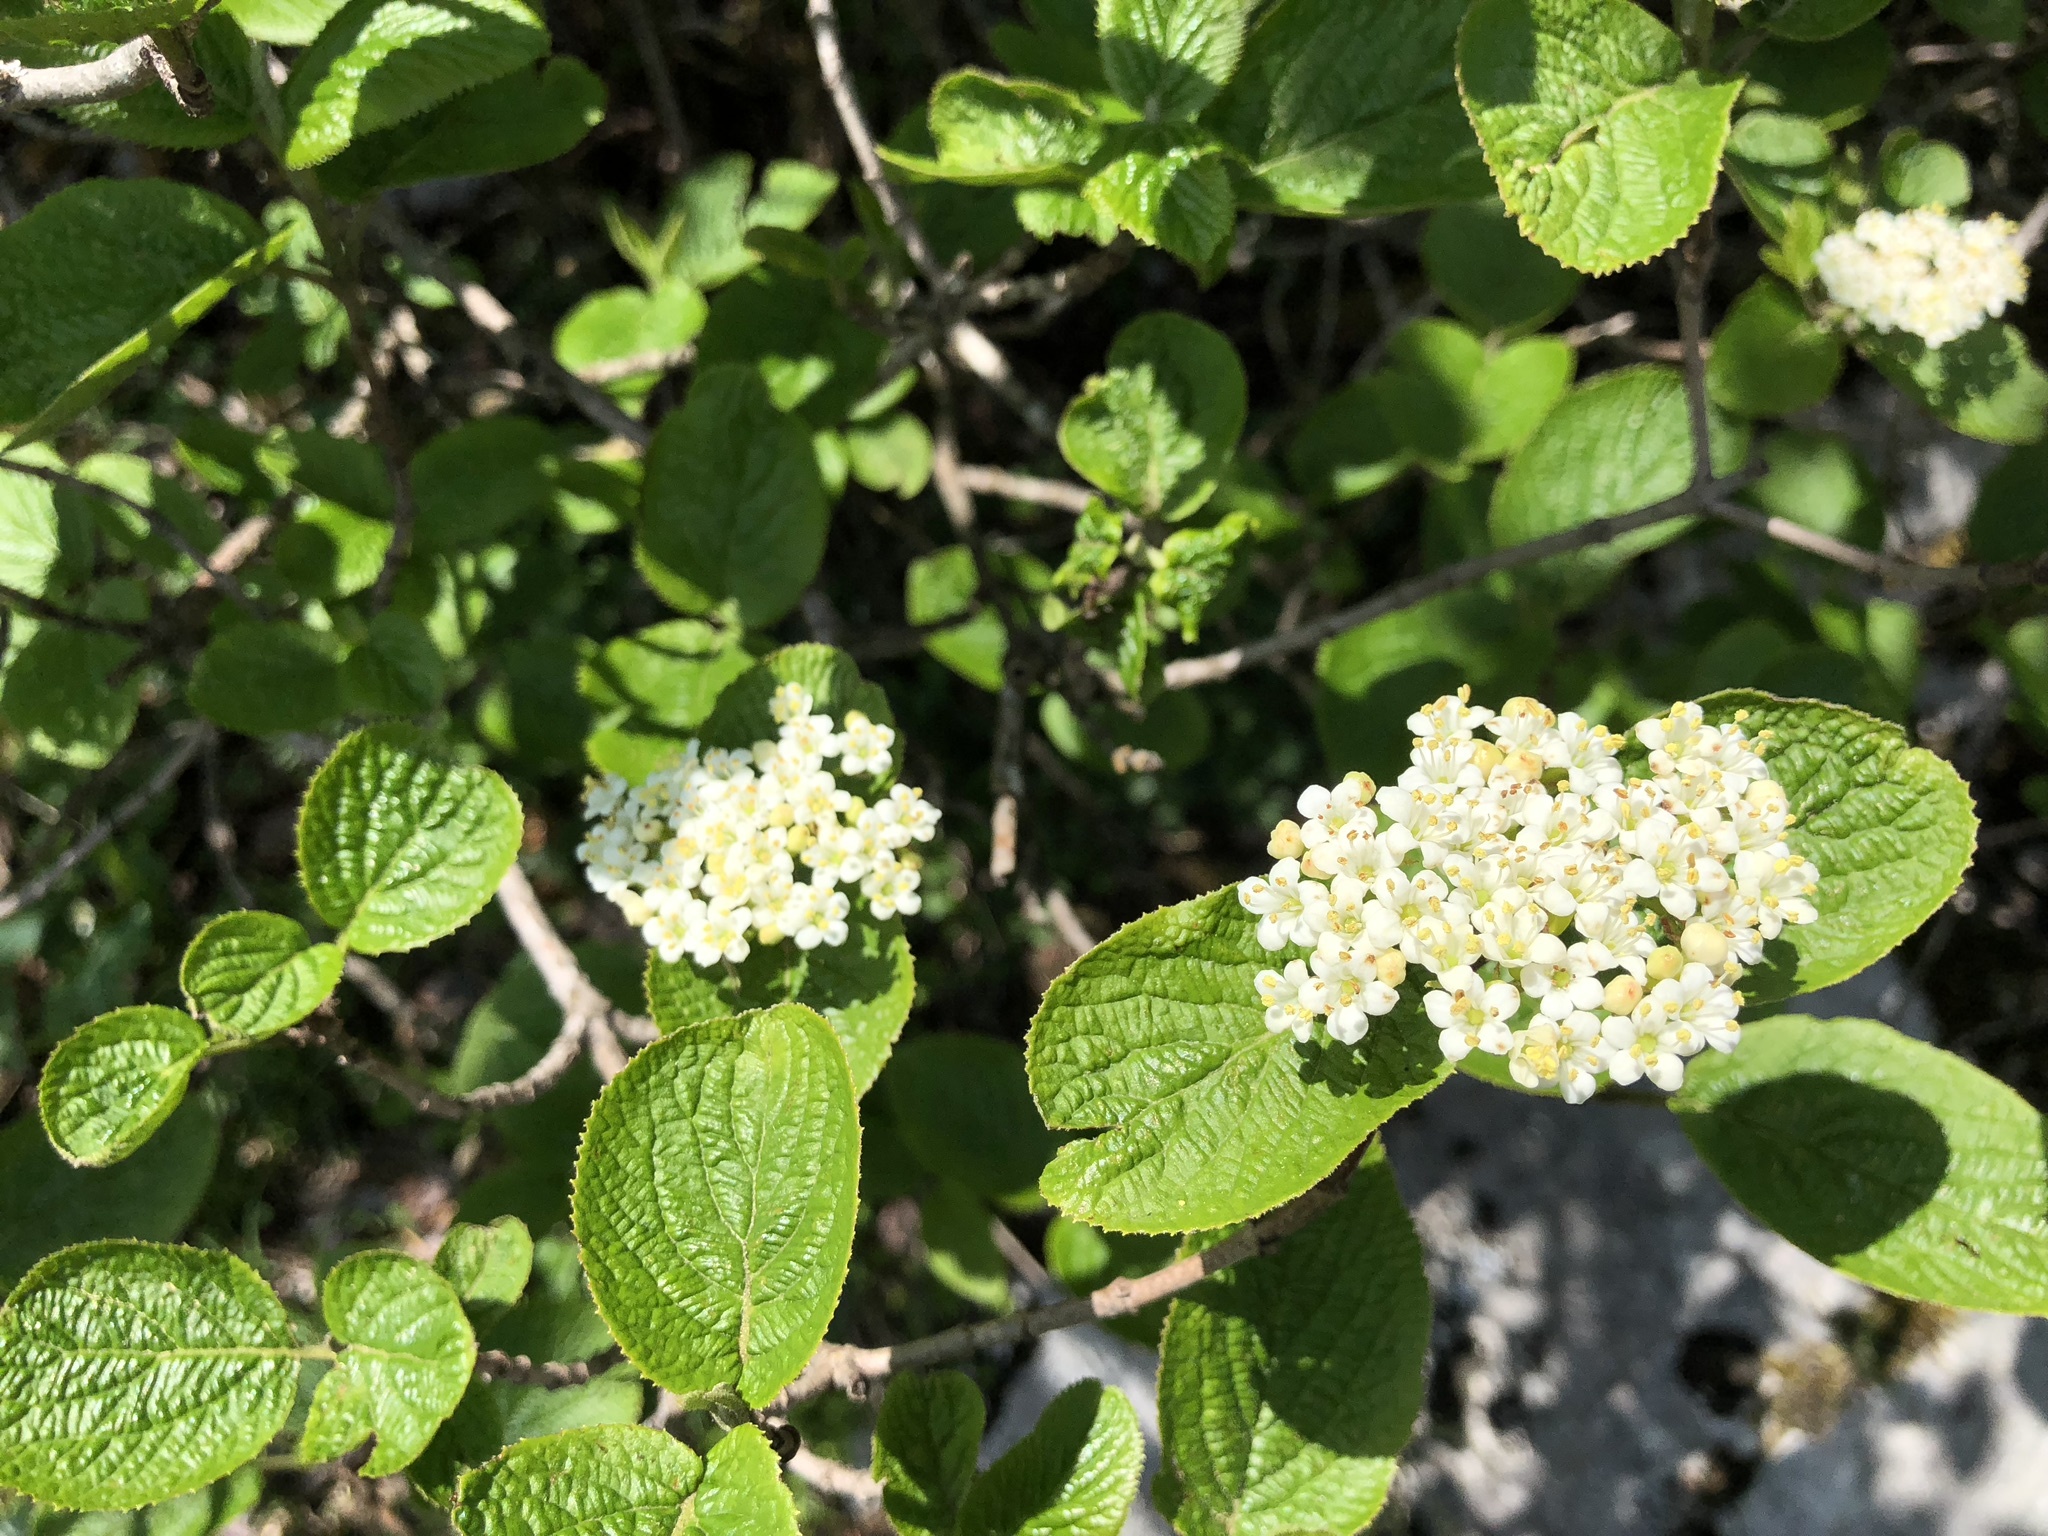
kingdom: Plantae
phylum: Tracheophyta
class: Magnoliopsida
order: Dipsacales
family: Viburnaceae
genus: Viburnum
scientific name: Viburnum lantana
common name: Wayfaring tree
